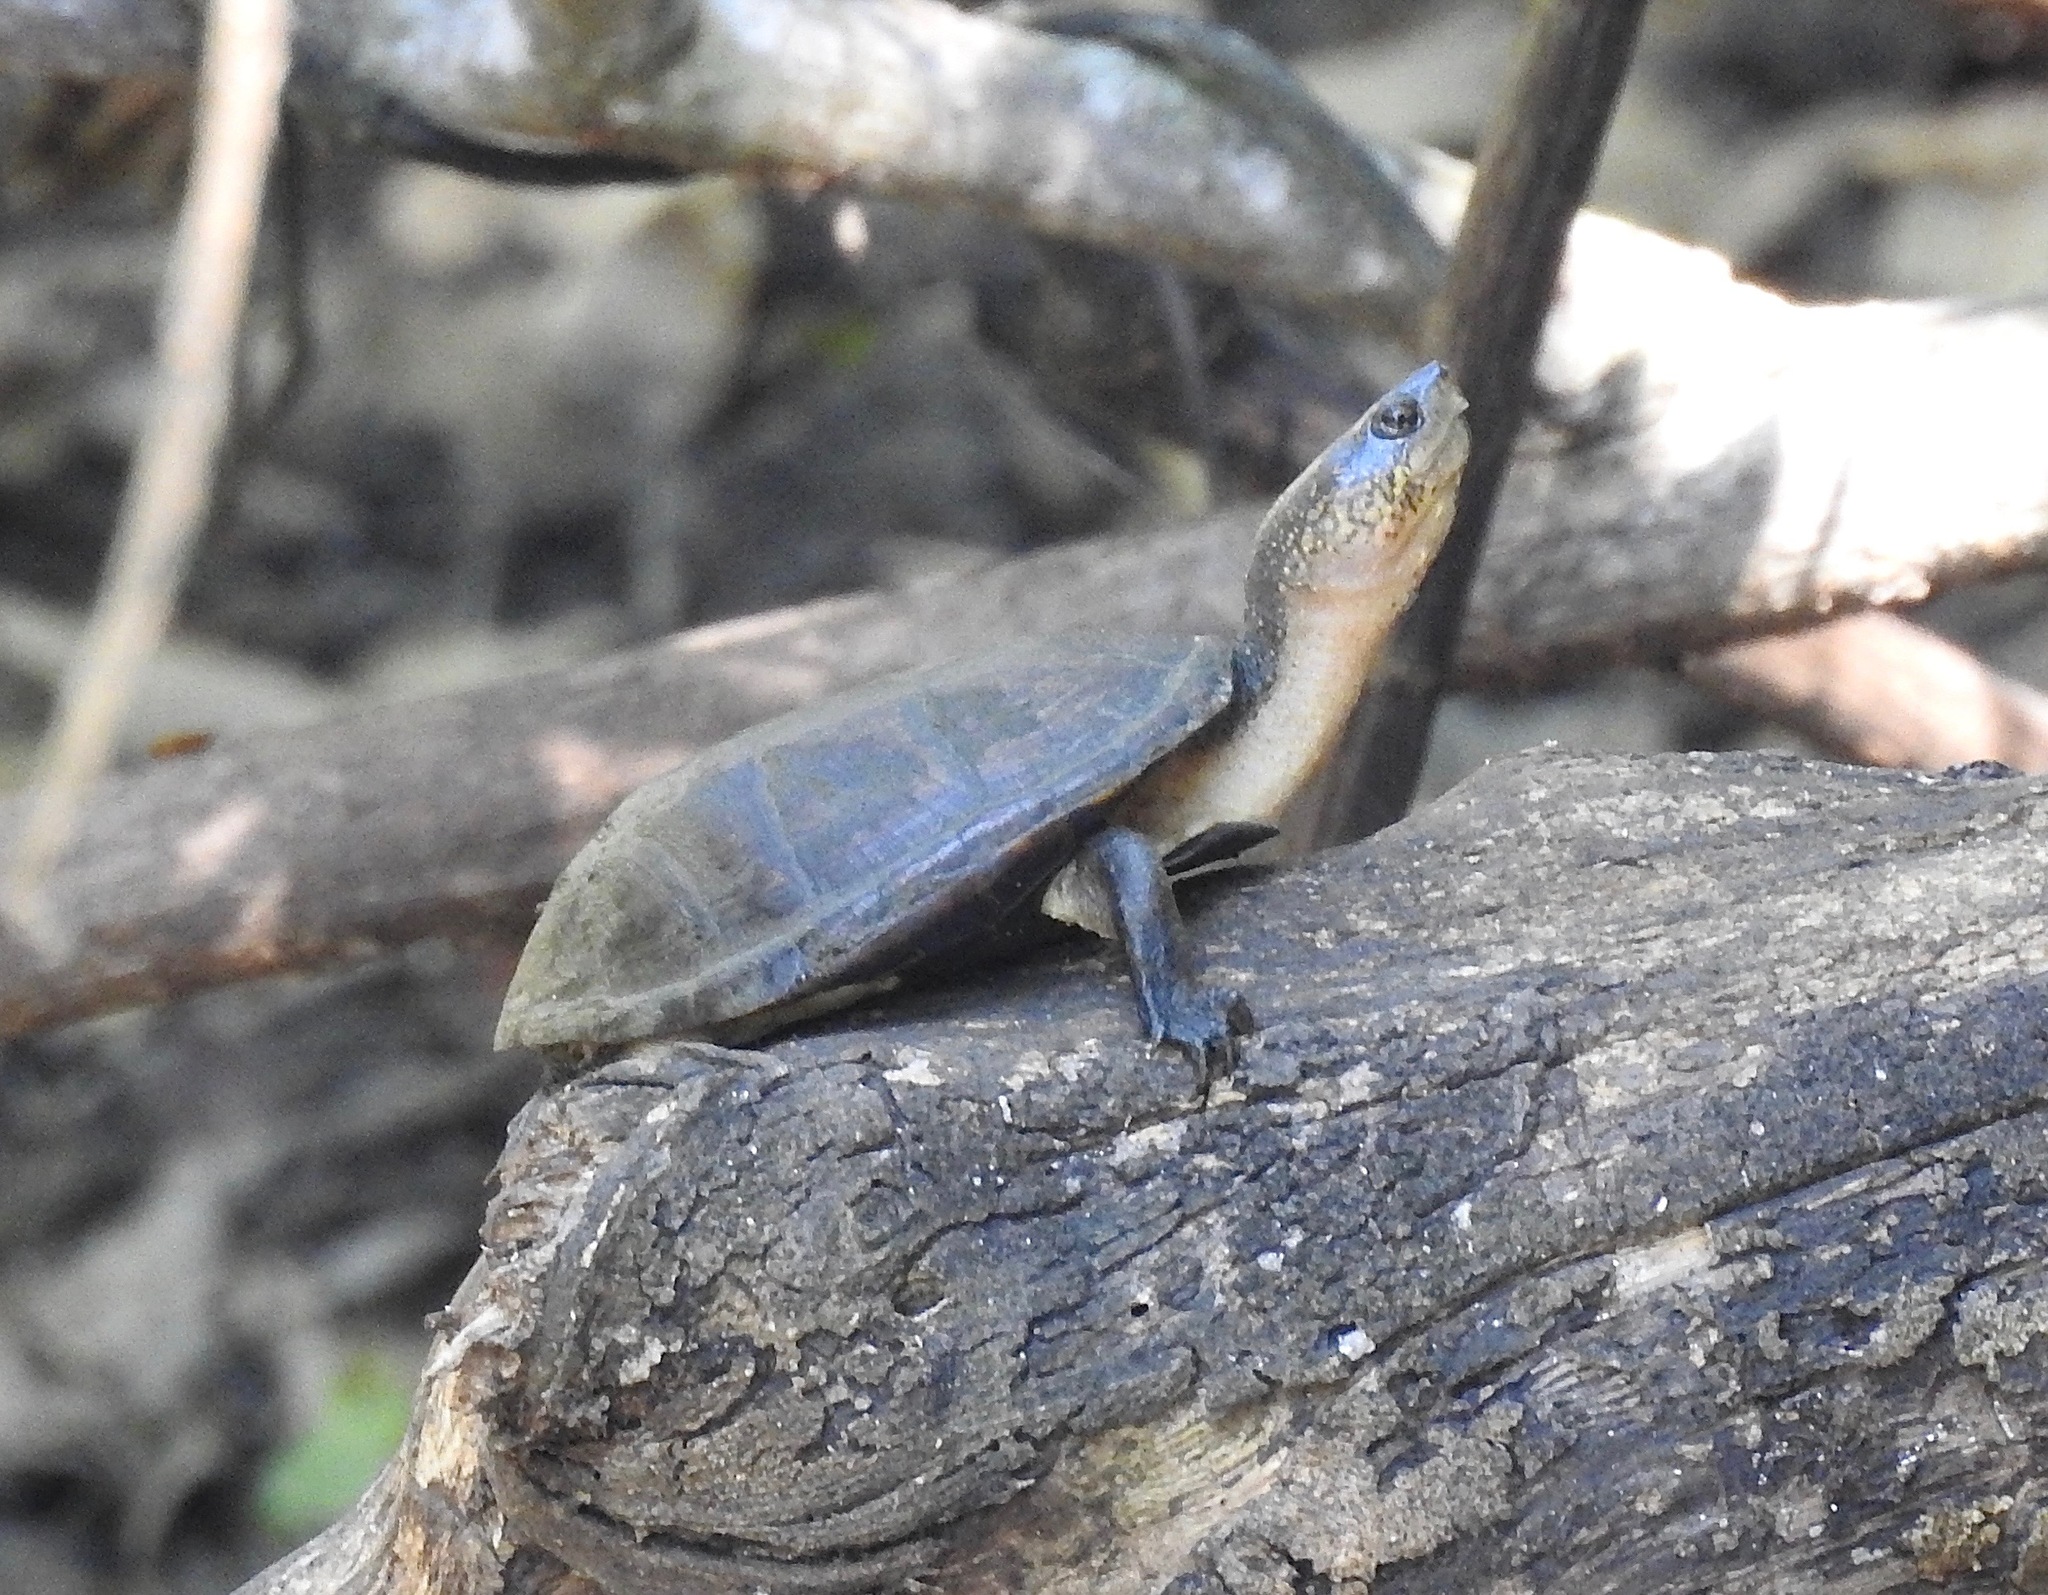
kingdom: Animalia
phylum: Chordata
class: Testudines
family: Kinosternidae
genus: Kinosternon
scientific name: Kinosternon chimalhuaca
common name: Jalisco mud turtle
